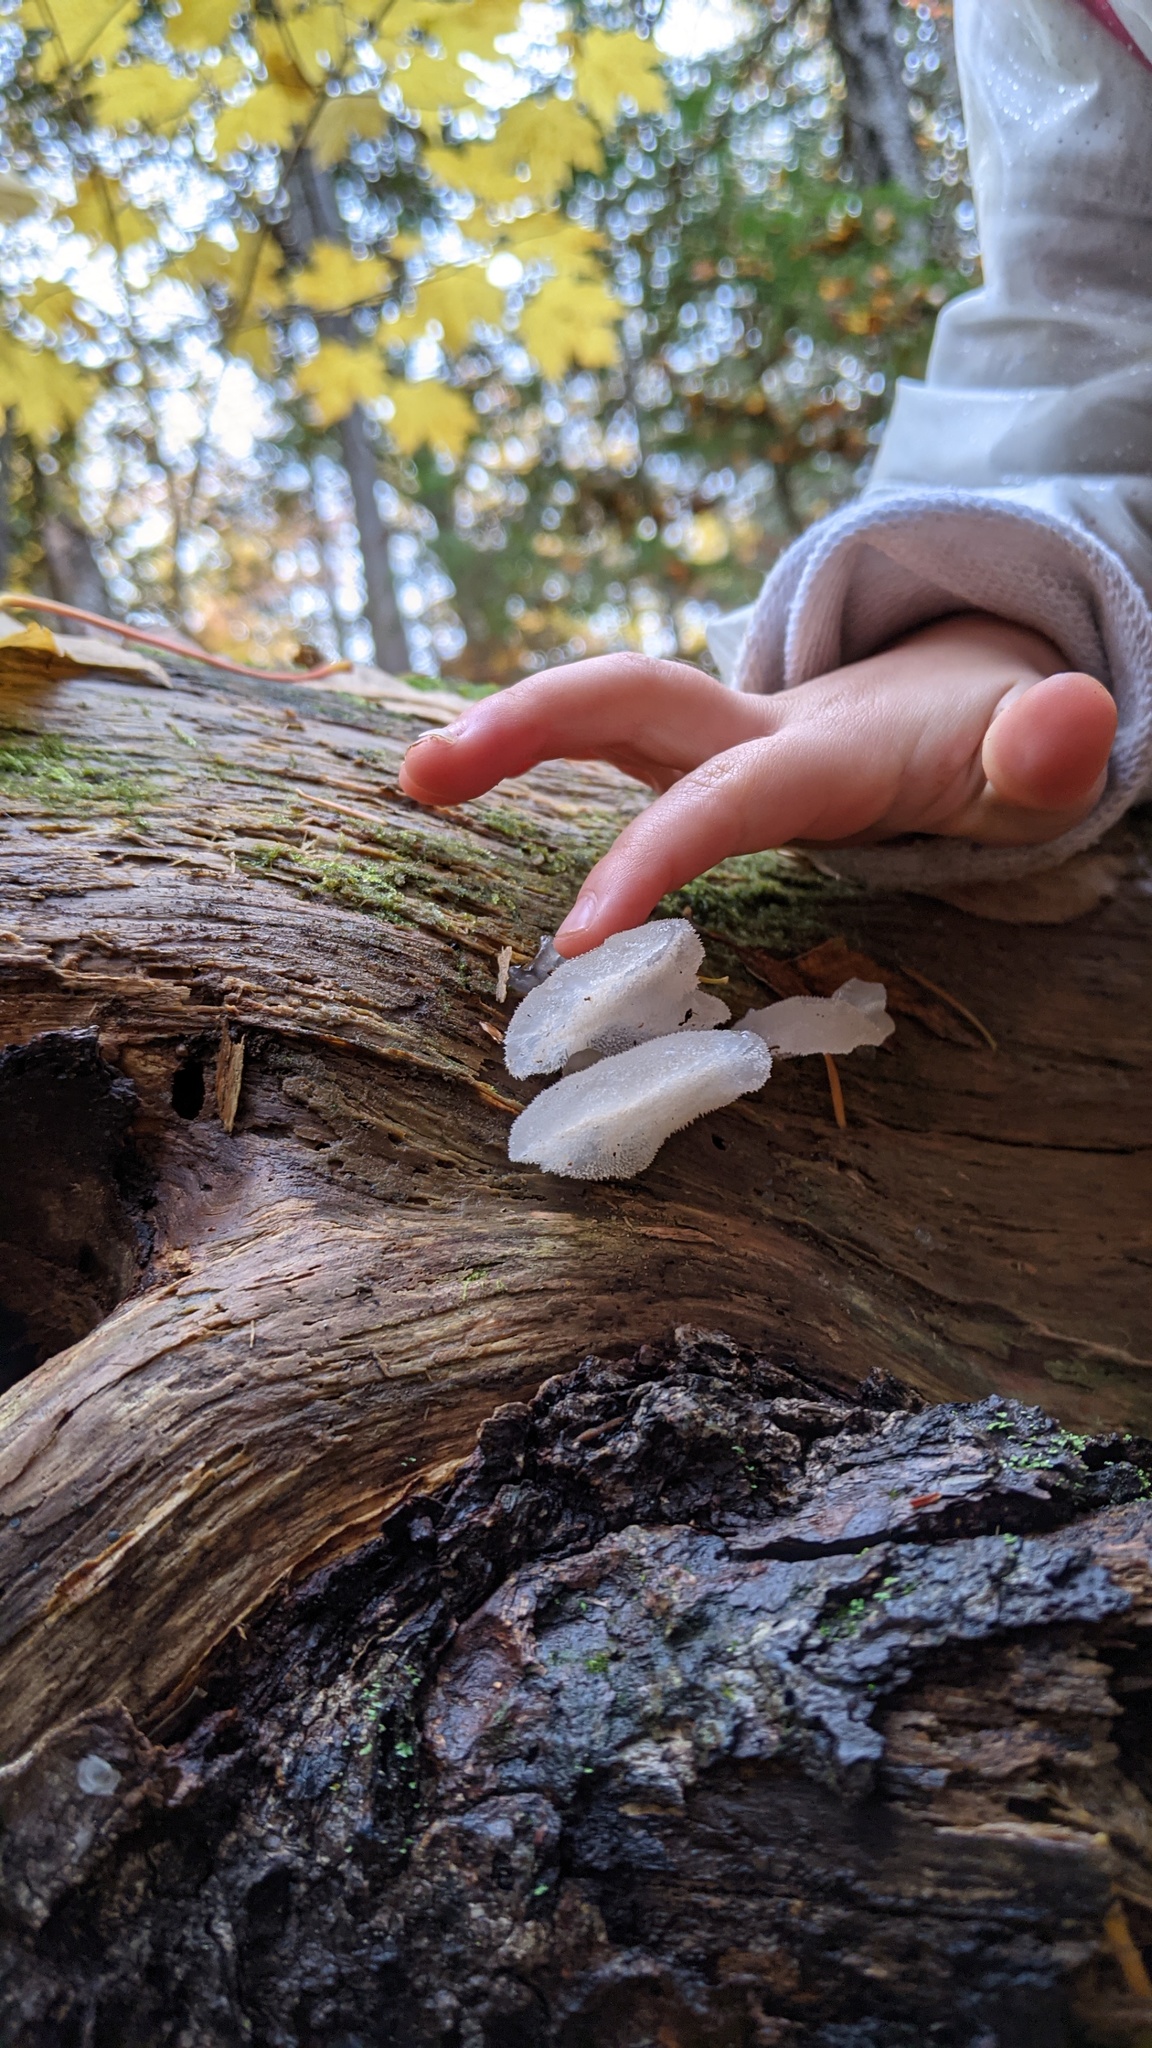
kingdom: Fungi
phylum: Basidiomycota
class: Agaricomycetes
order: Auriculariales
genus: Pseudohydnum
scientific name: Pseudohydnum gelatinosum
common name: Jelly tongue
